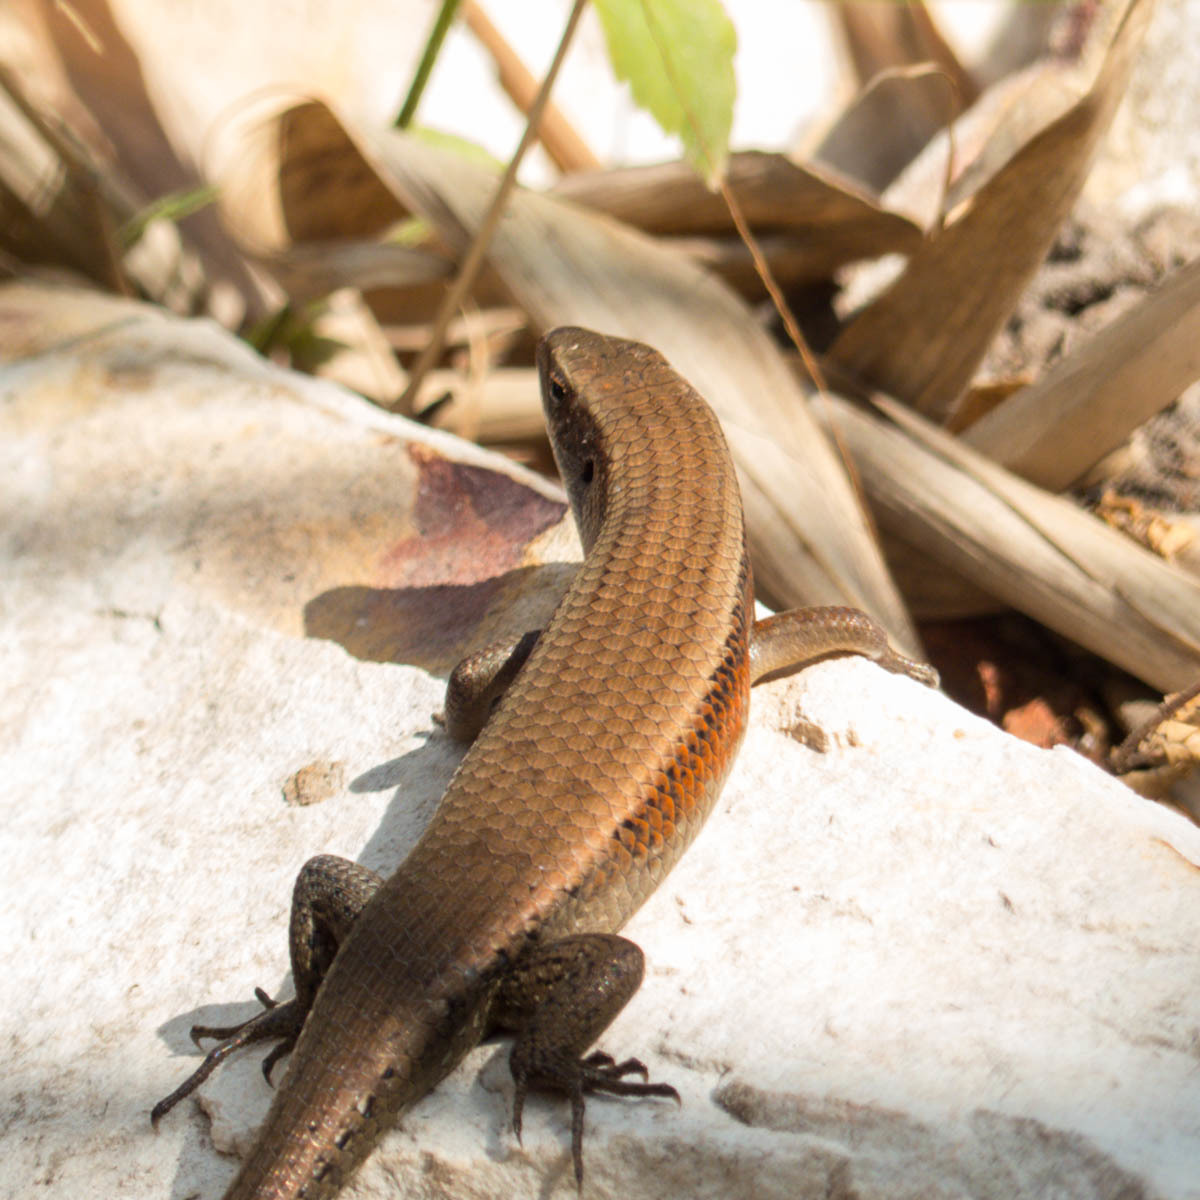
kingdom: Animalia
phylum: Chordata
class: Squamata
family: Scincidae
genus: Eutropis
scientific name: Eutropis multifasciata
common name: Common mabuya
